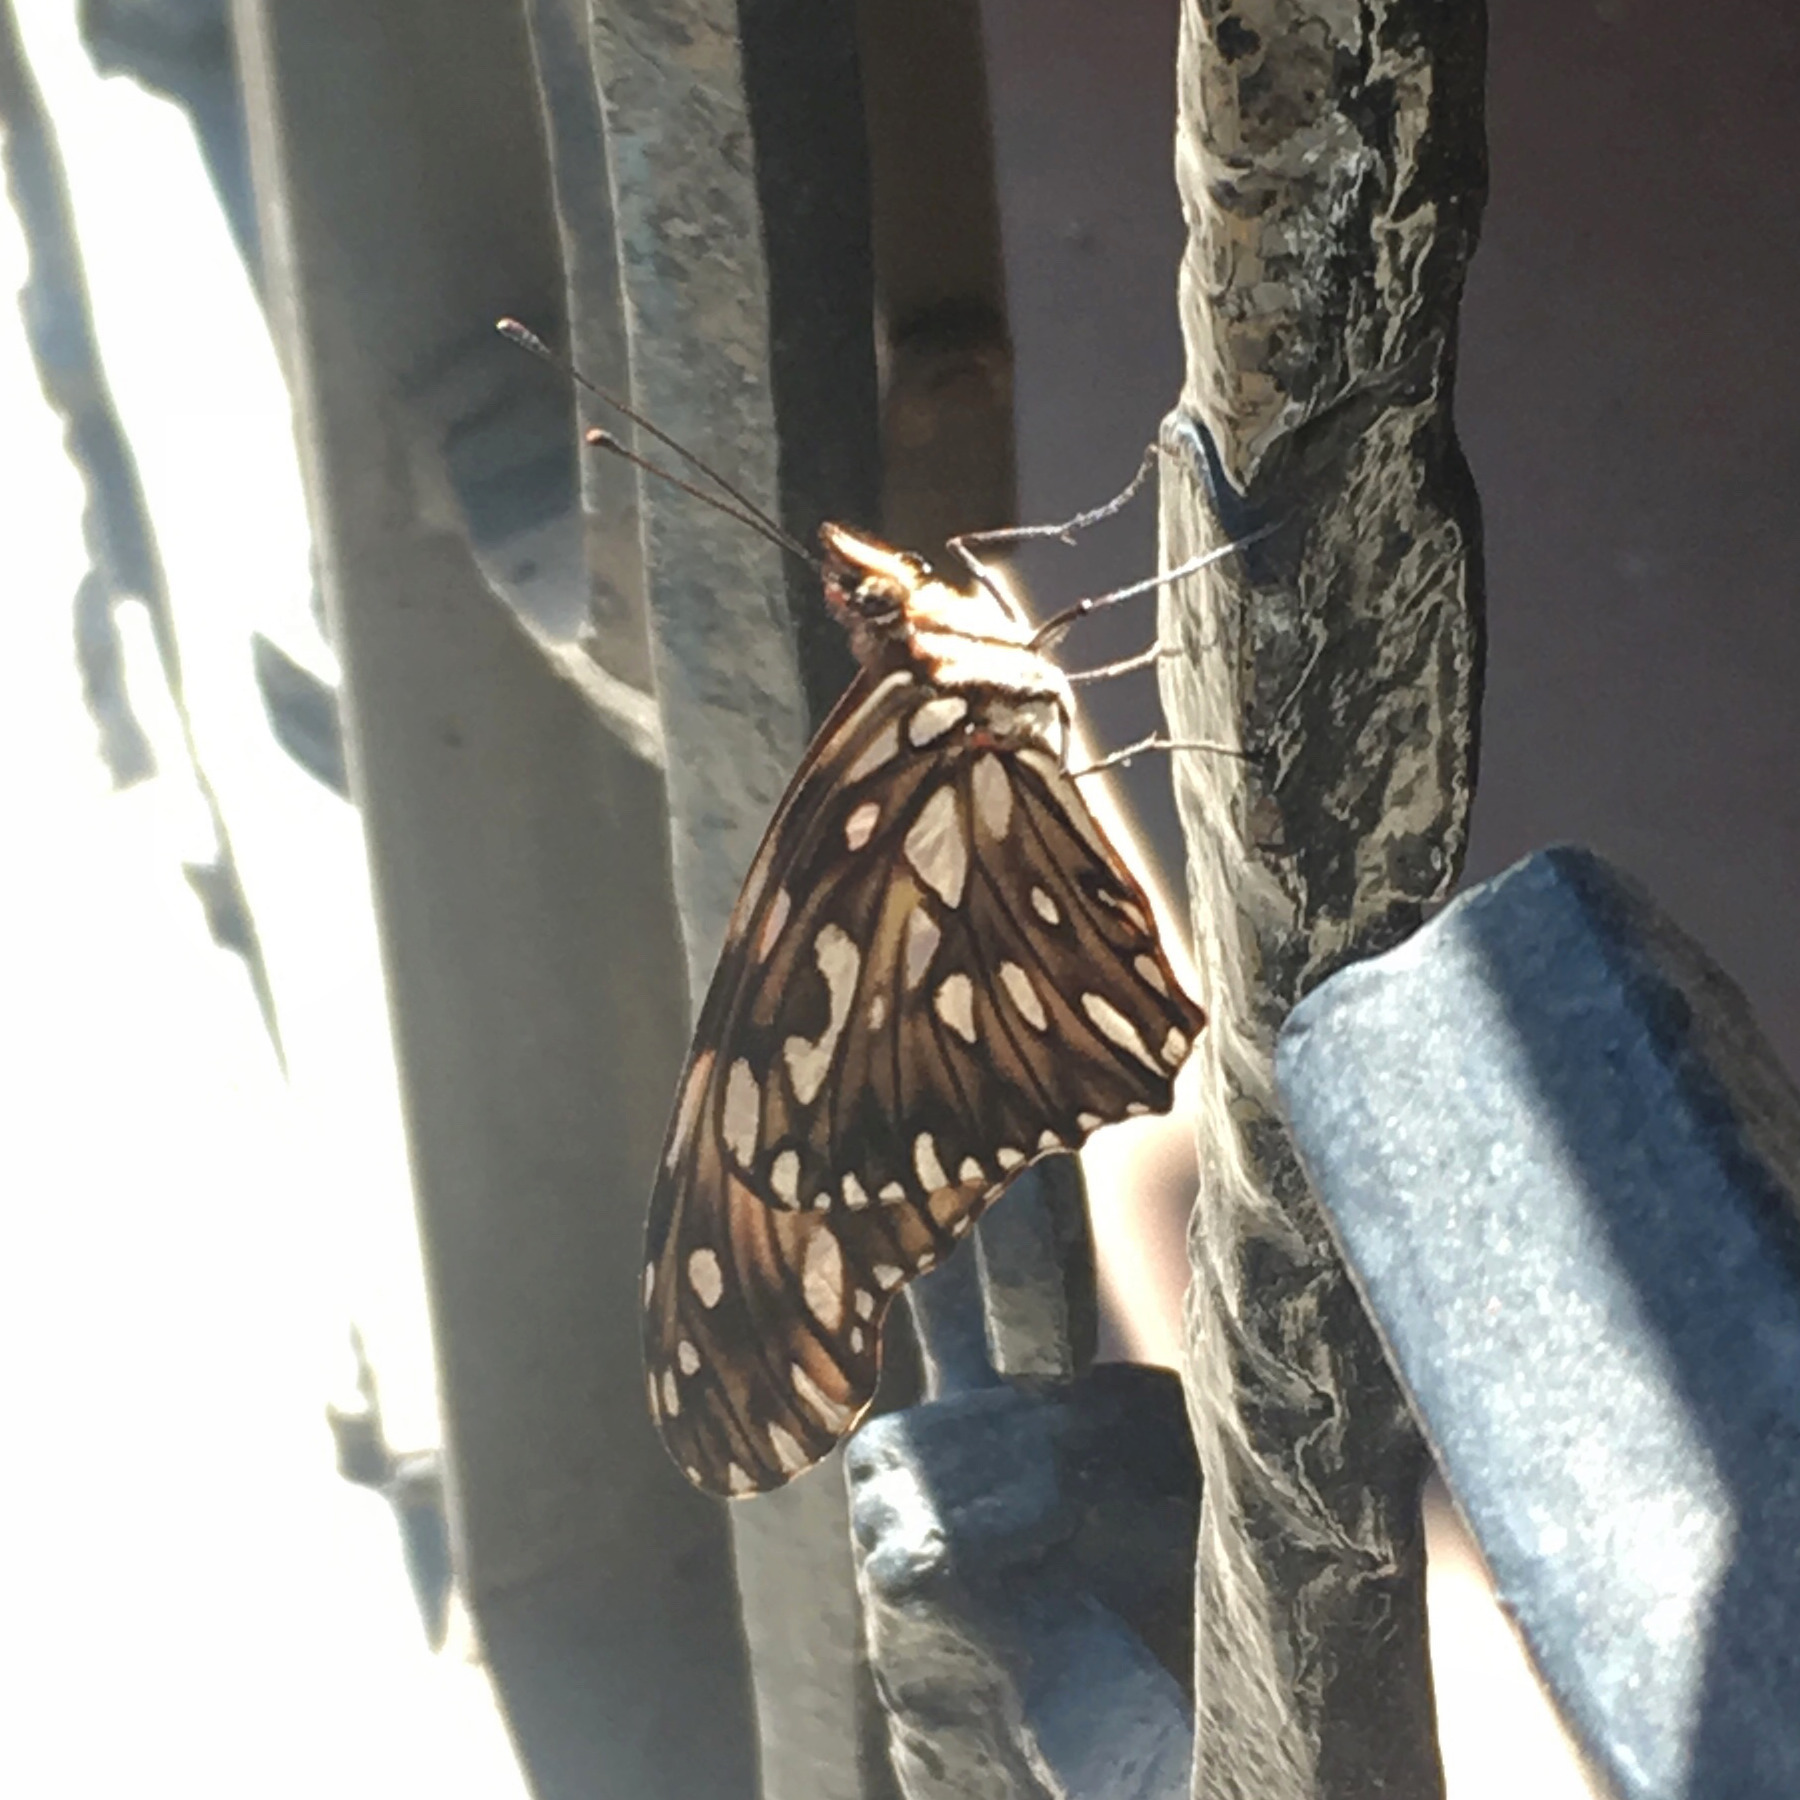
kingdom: Animalia
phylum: Arthropoda
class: Insecta
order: Lepidoptera
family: Nymphalidae
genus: Dione
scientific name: Dione juno
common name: Juno silverspot
